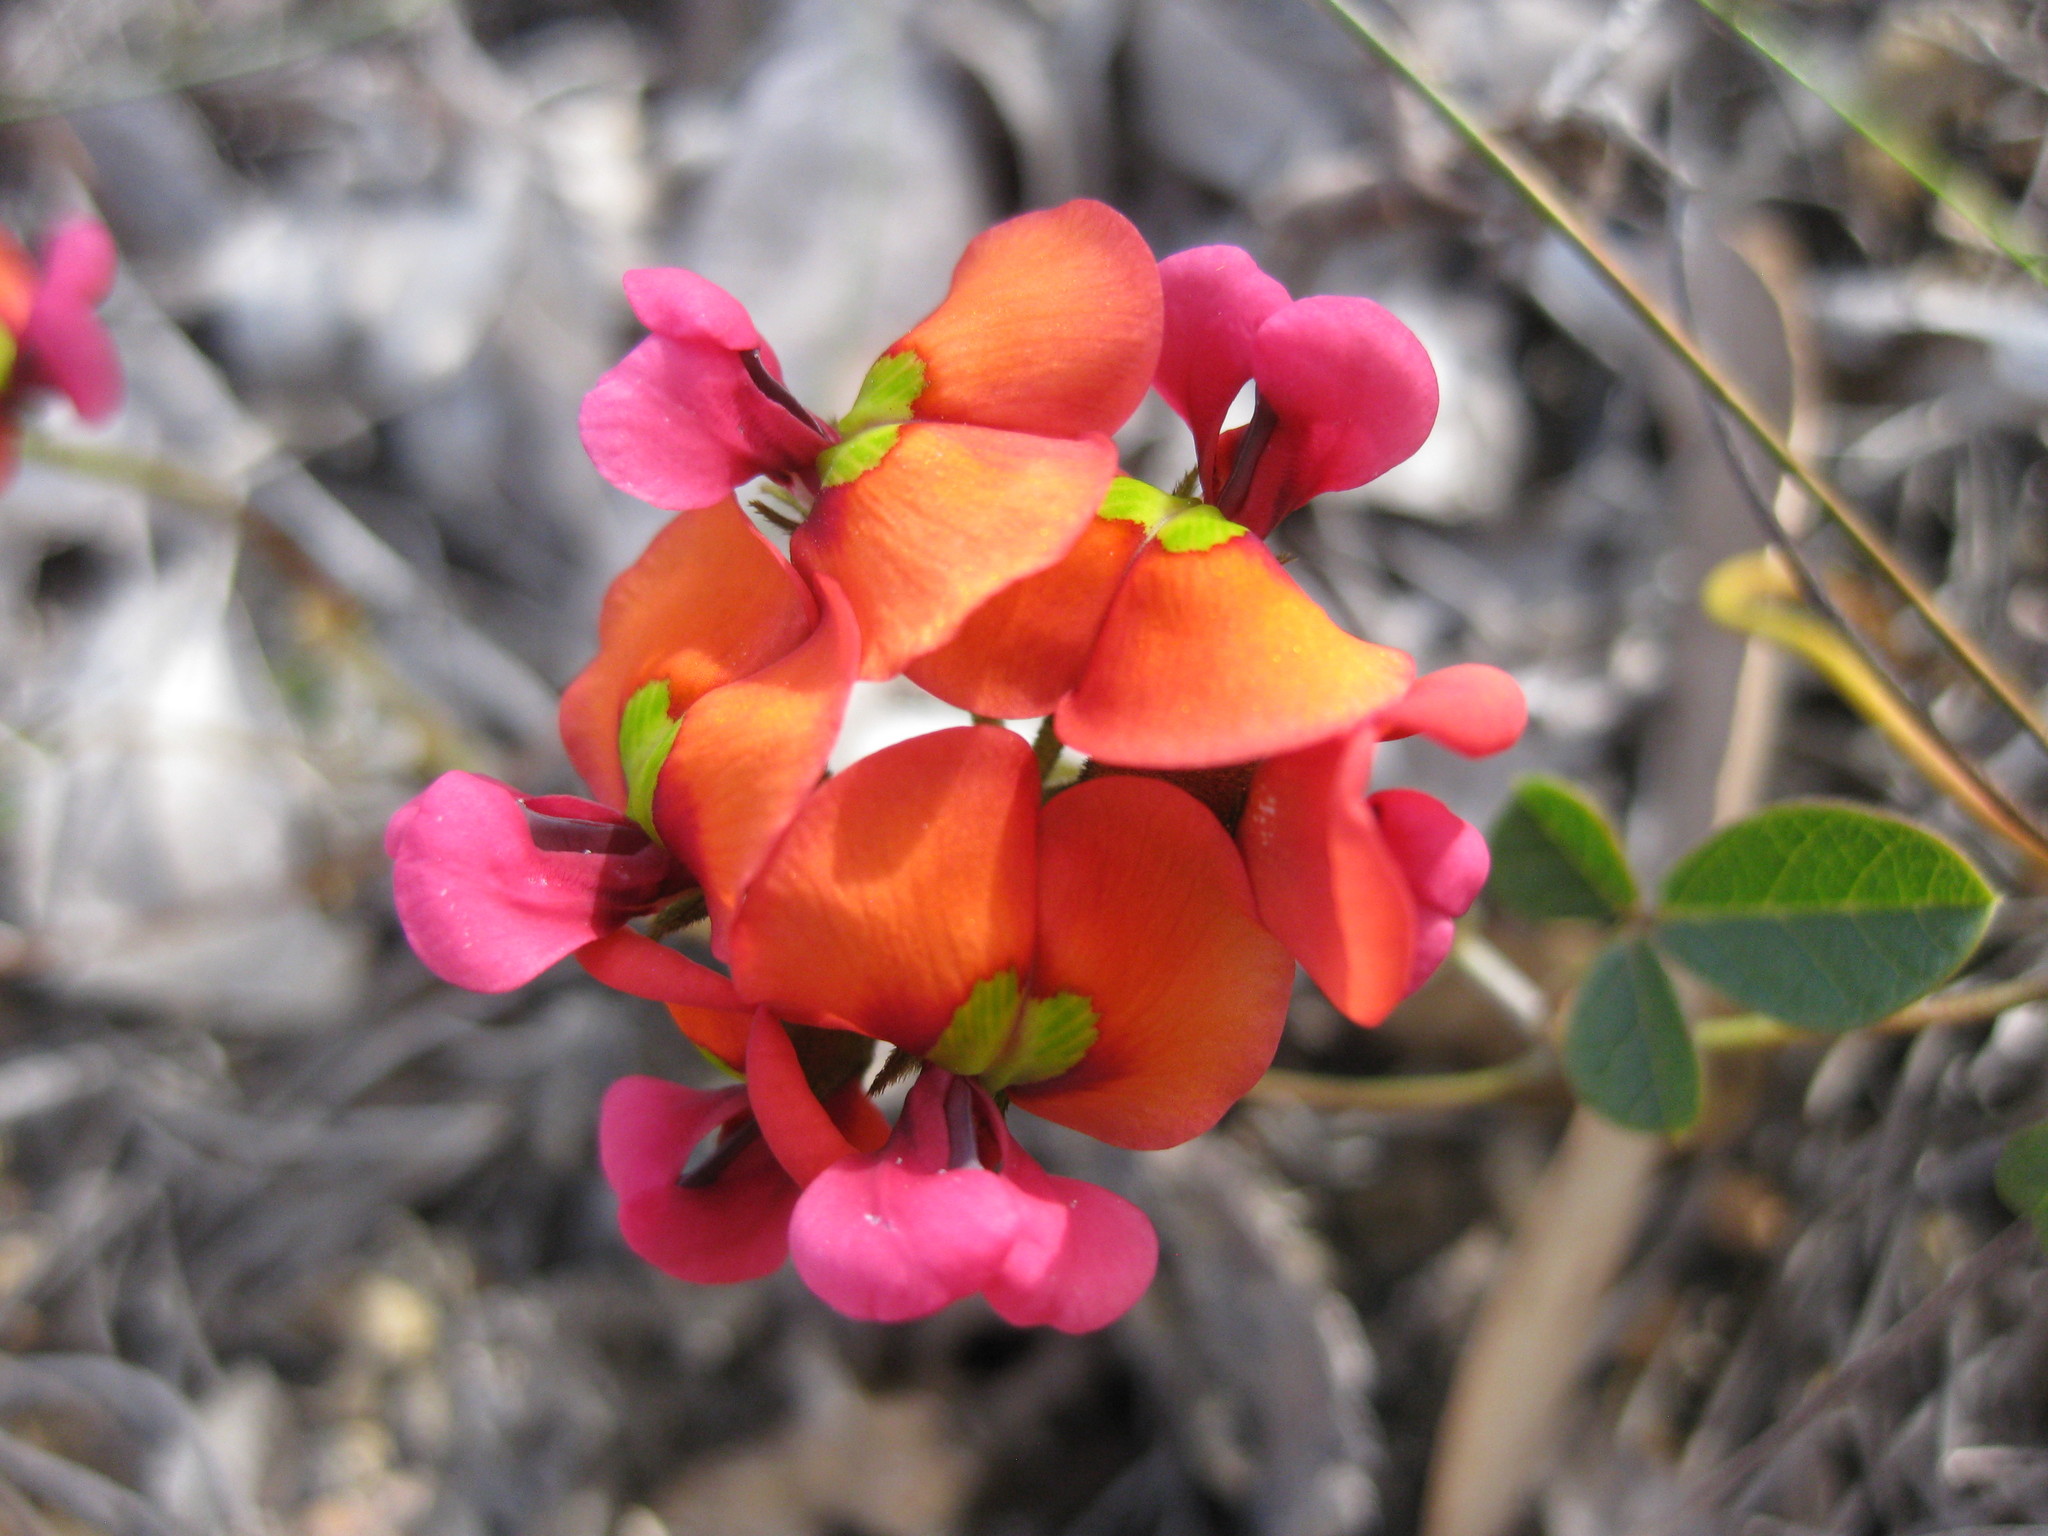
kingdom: Plantae
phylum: Tracheophyta
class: Magnoliopsida
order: Fabales
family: Fabaceae
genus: Kennedia
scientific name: Kennedia coccinea
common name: Coralvine
